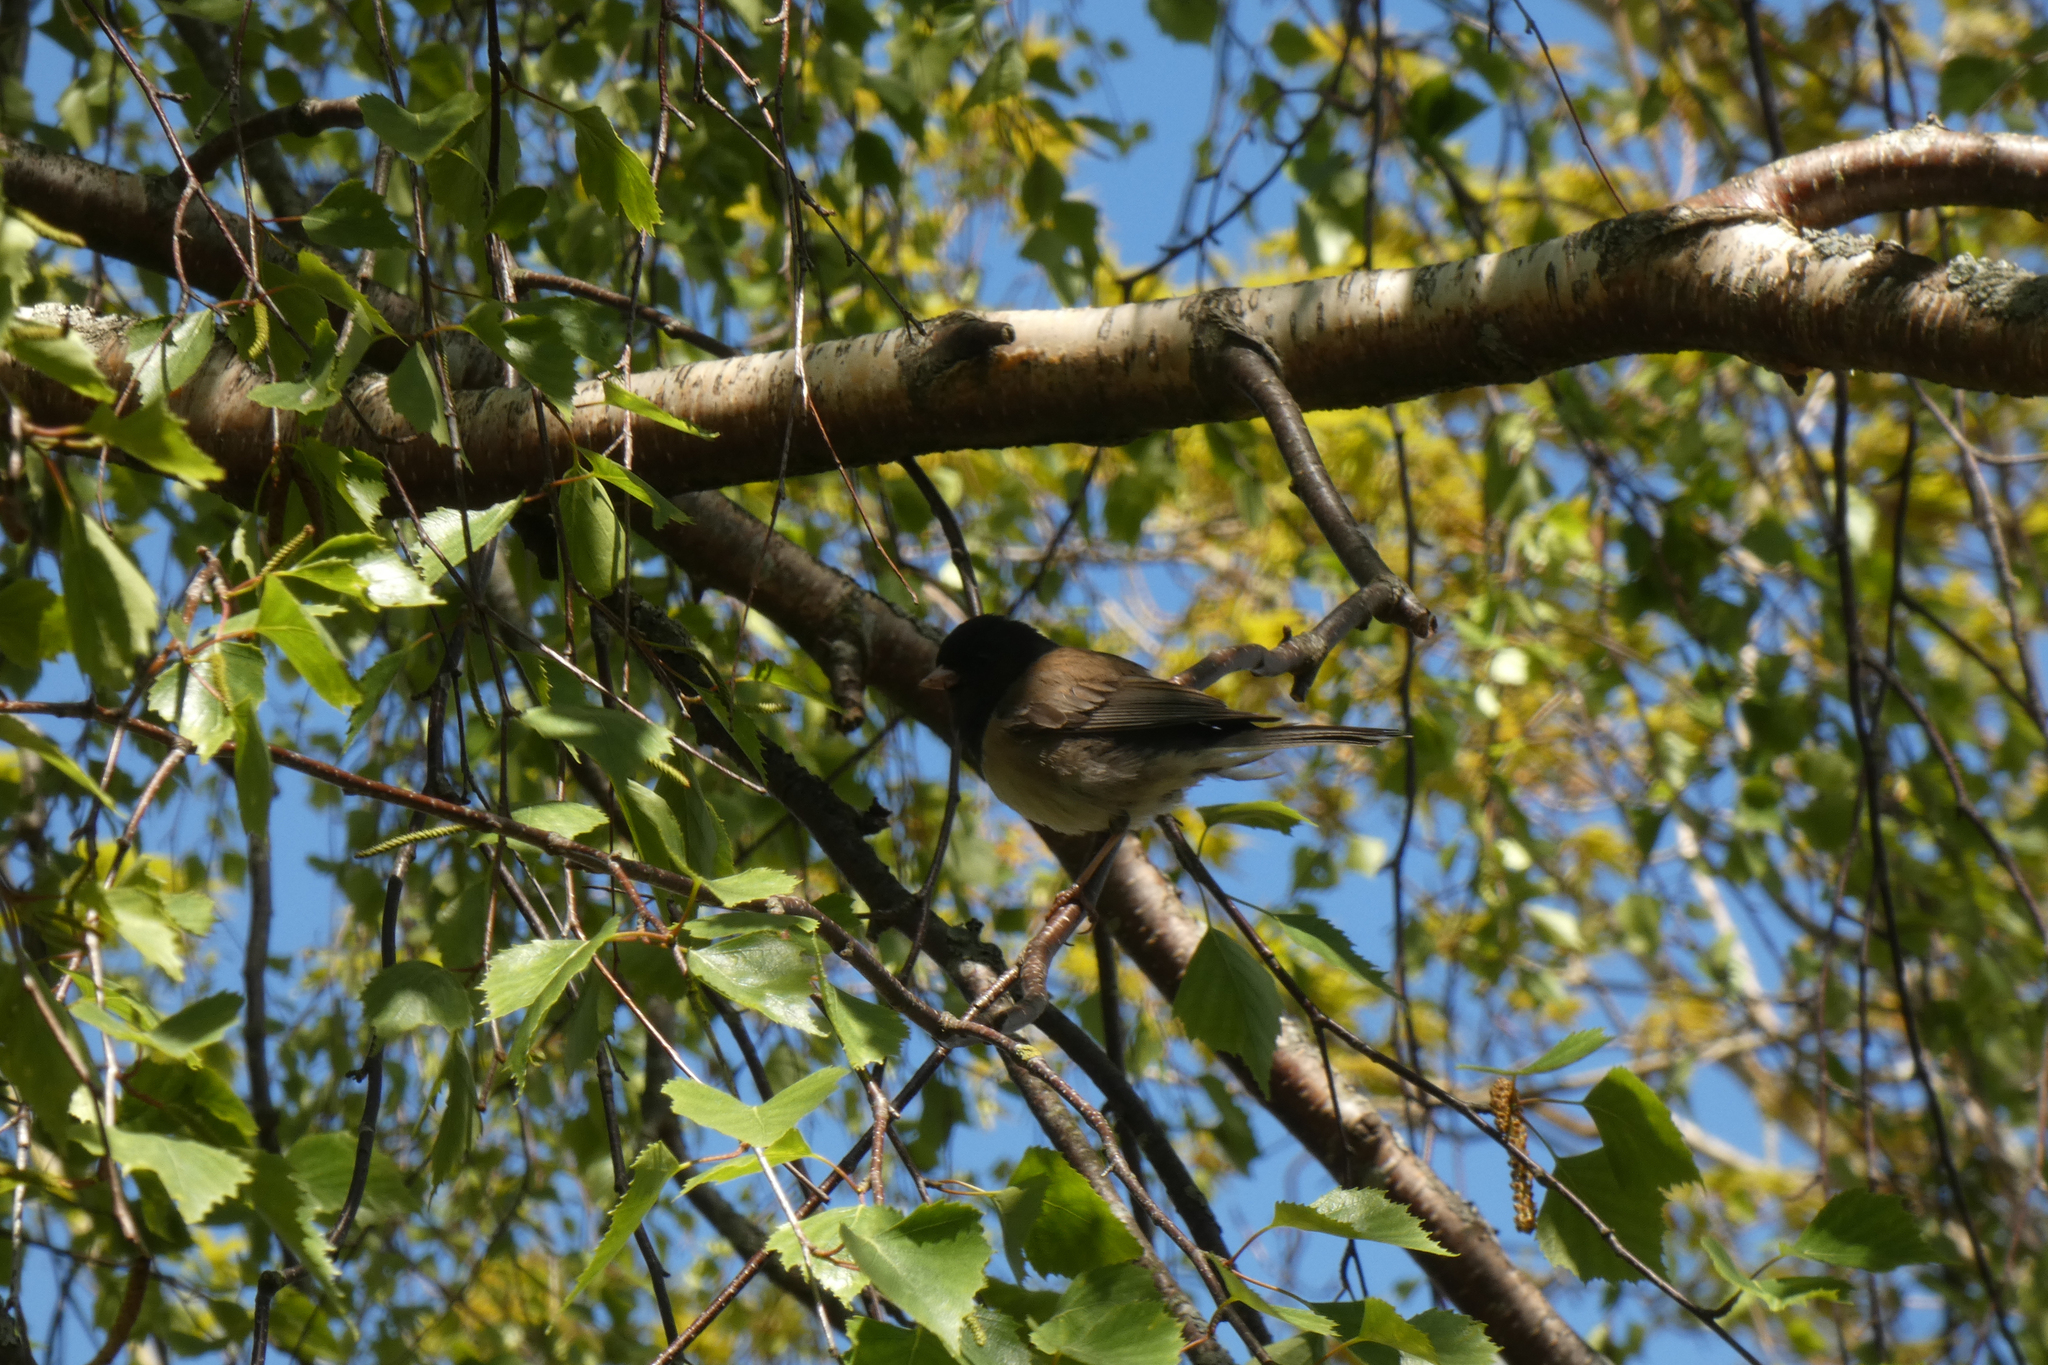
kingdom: Animalia
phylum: Chordata
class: Aves
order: Passeriformes
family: Passerellidae
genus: Junco
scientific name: Junco hyemalis
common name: Dark-eyed junco
